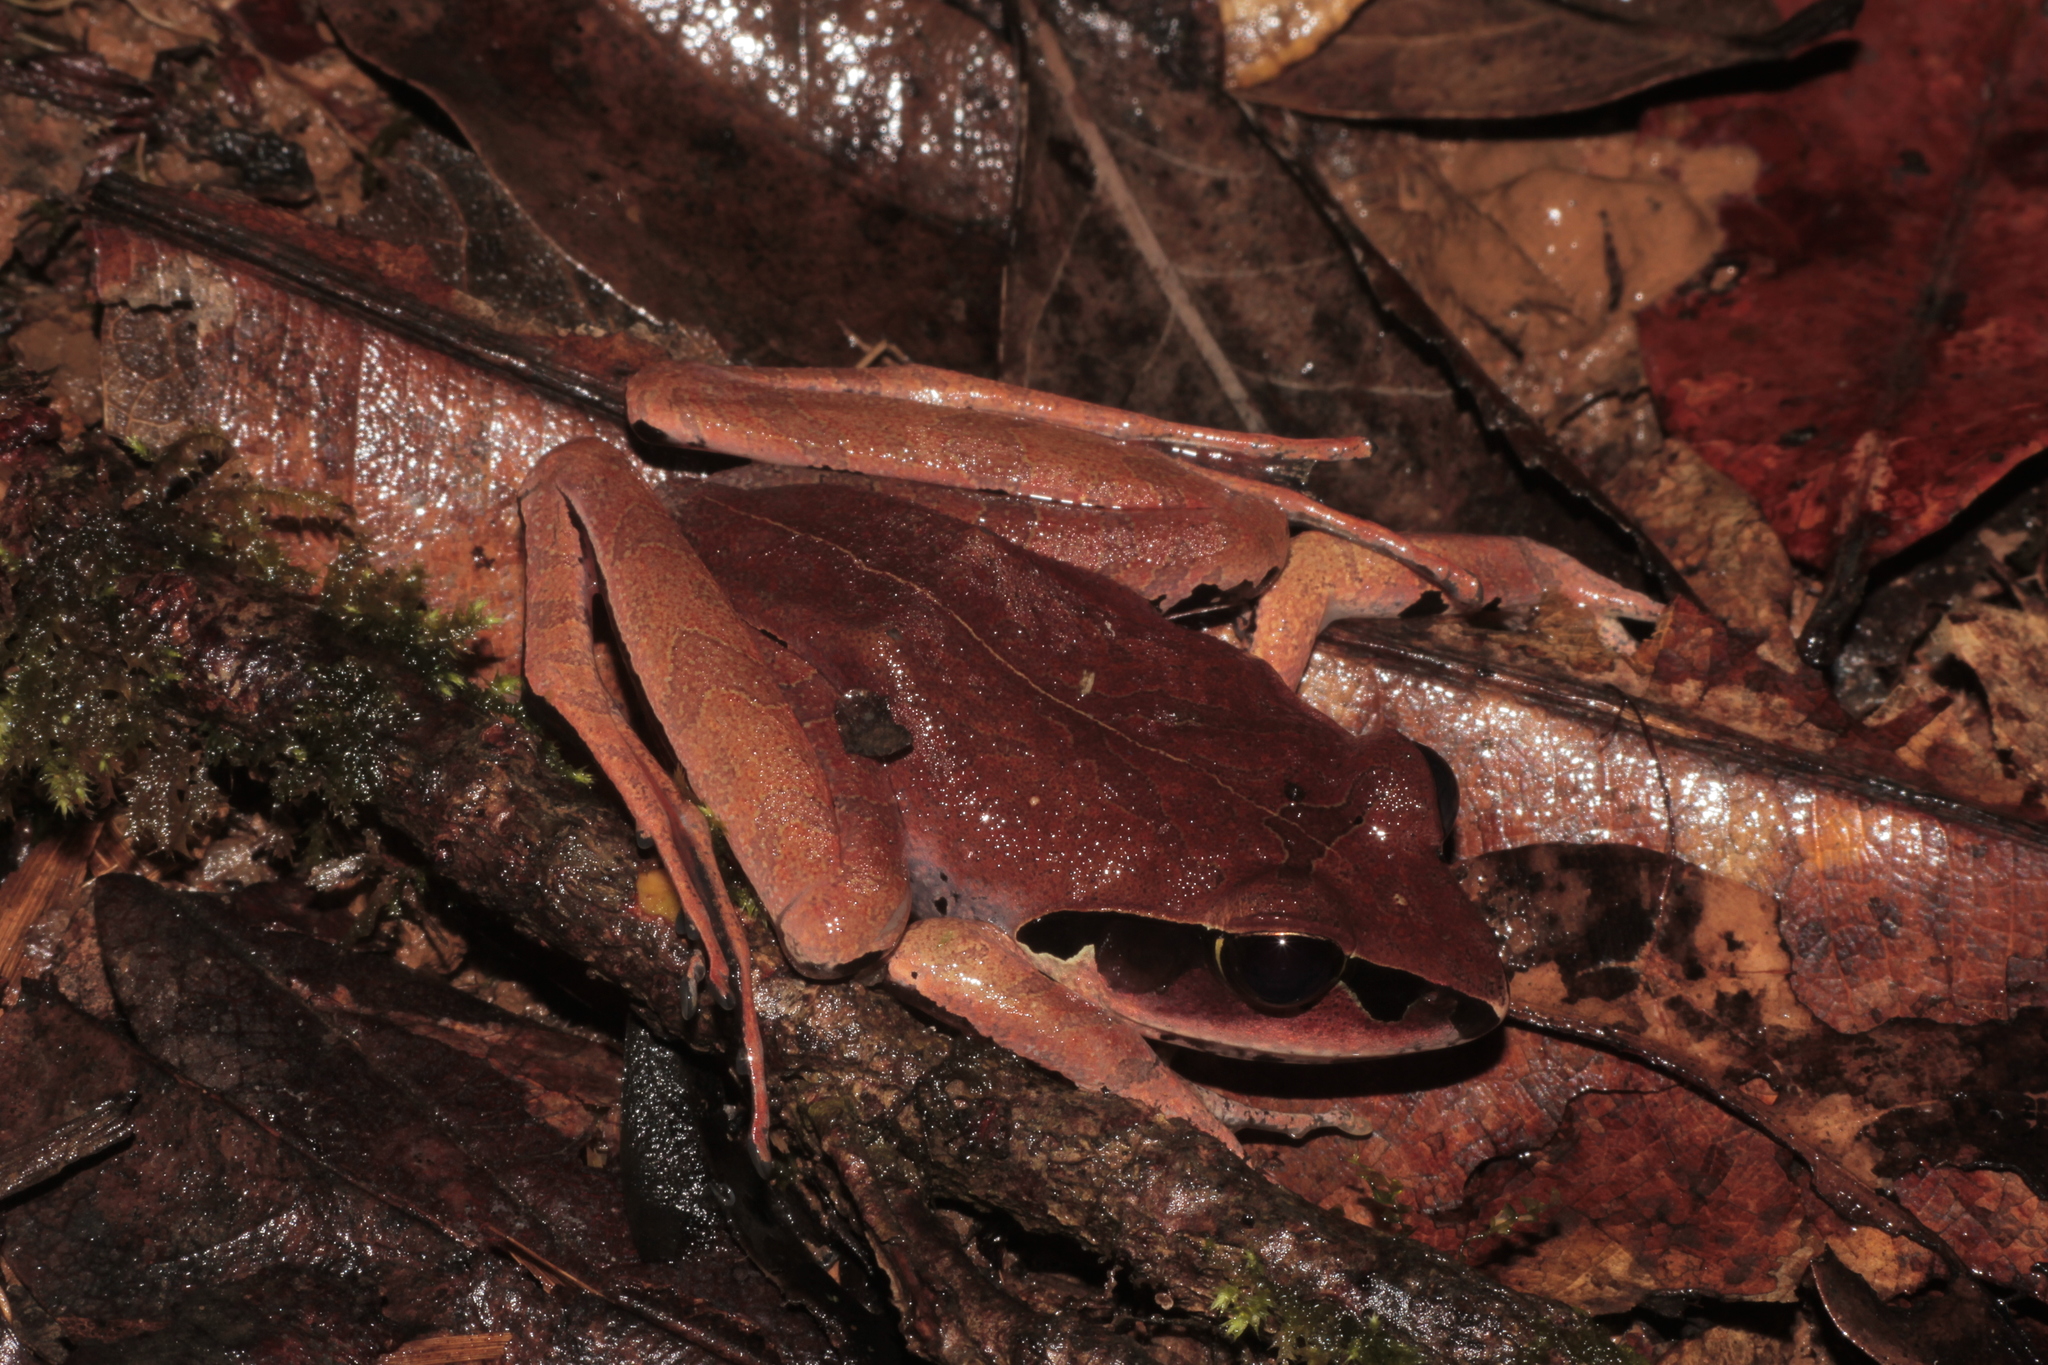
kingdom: Animalia
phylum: Chordata
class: Amphibia
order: Anura
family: Mantellidae
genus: Aglyptodactylus
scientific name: Aglyptodactylus madagascariensis
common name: Madagascar jumping frog
